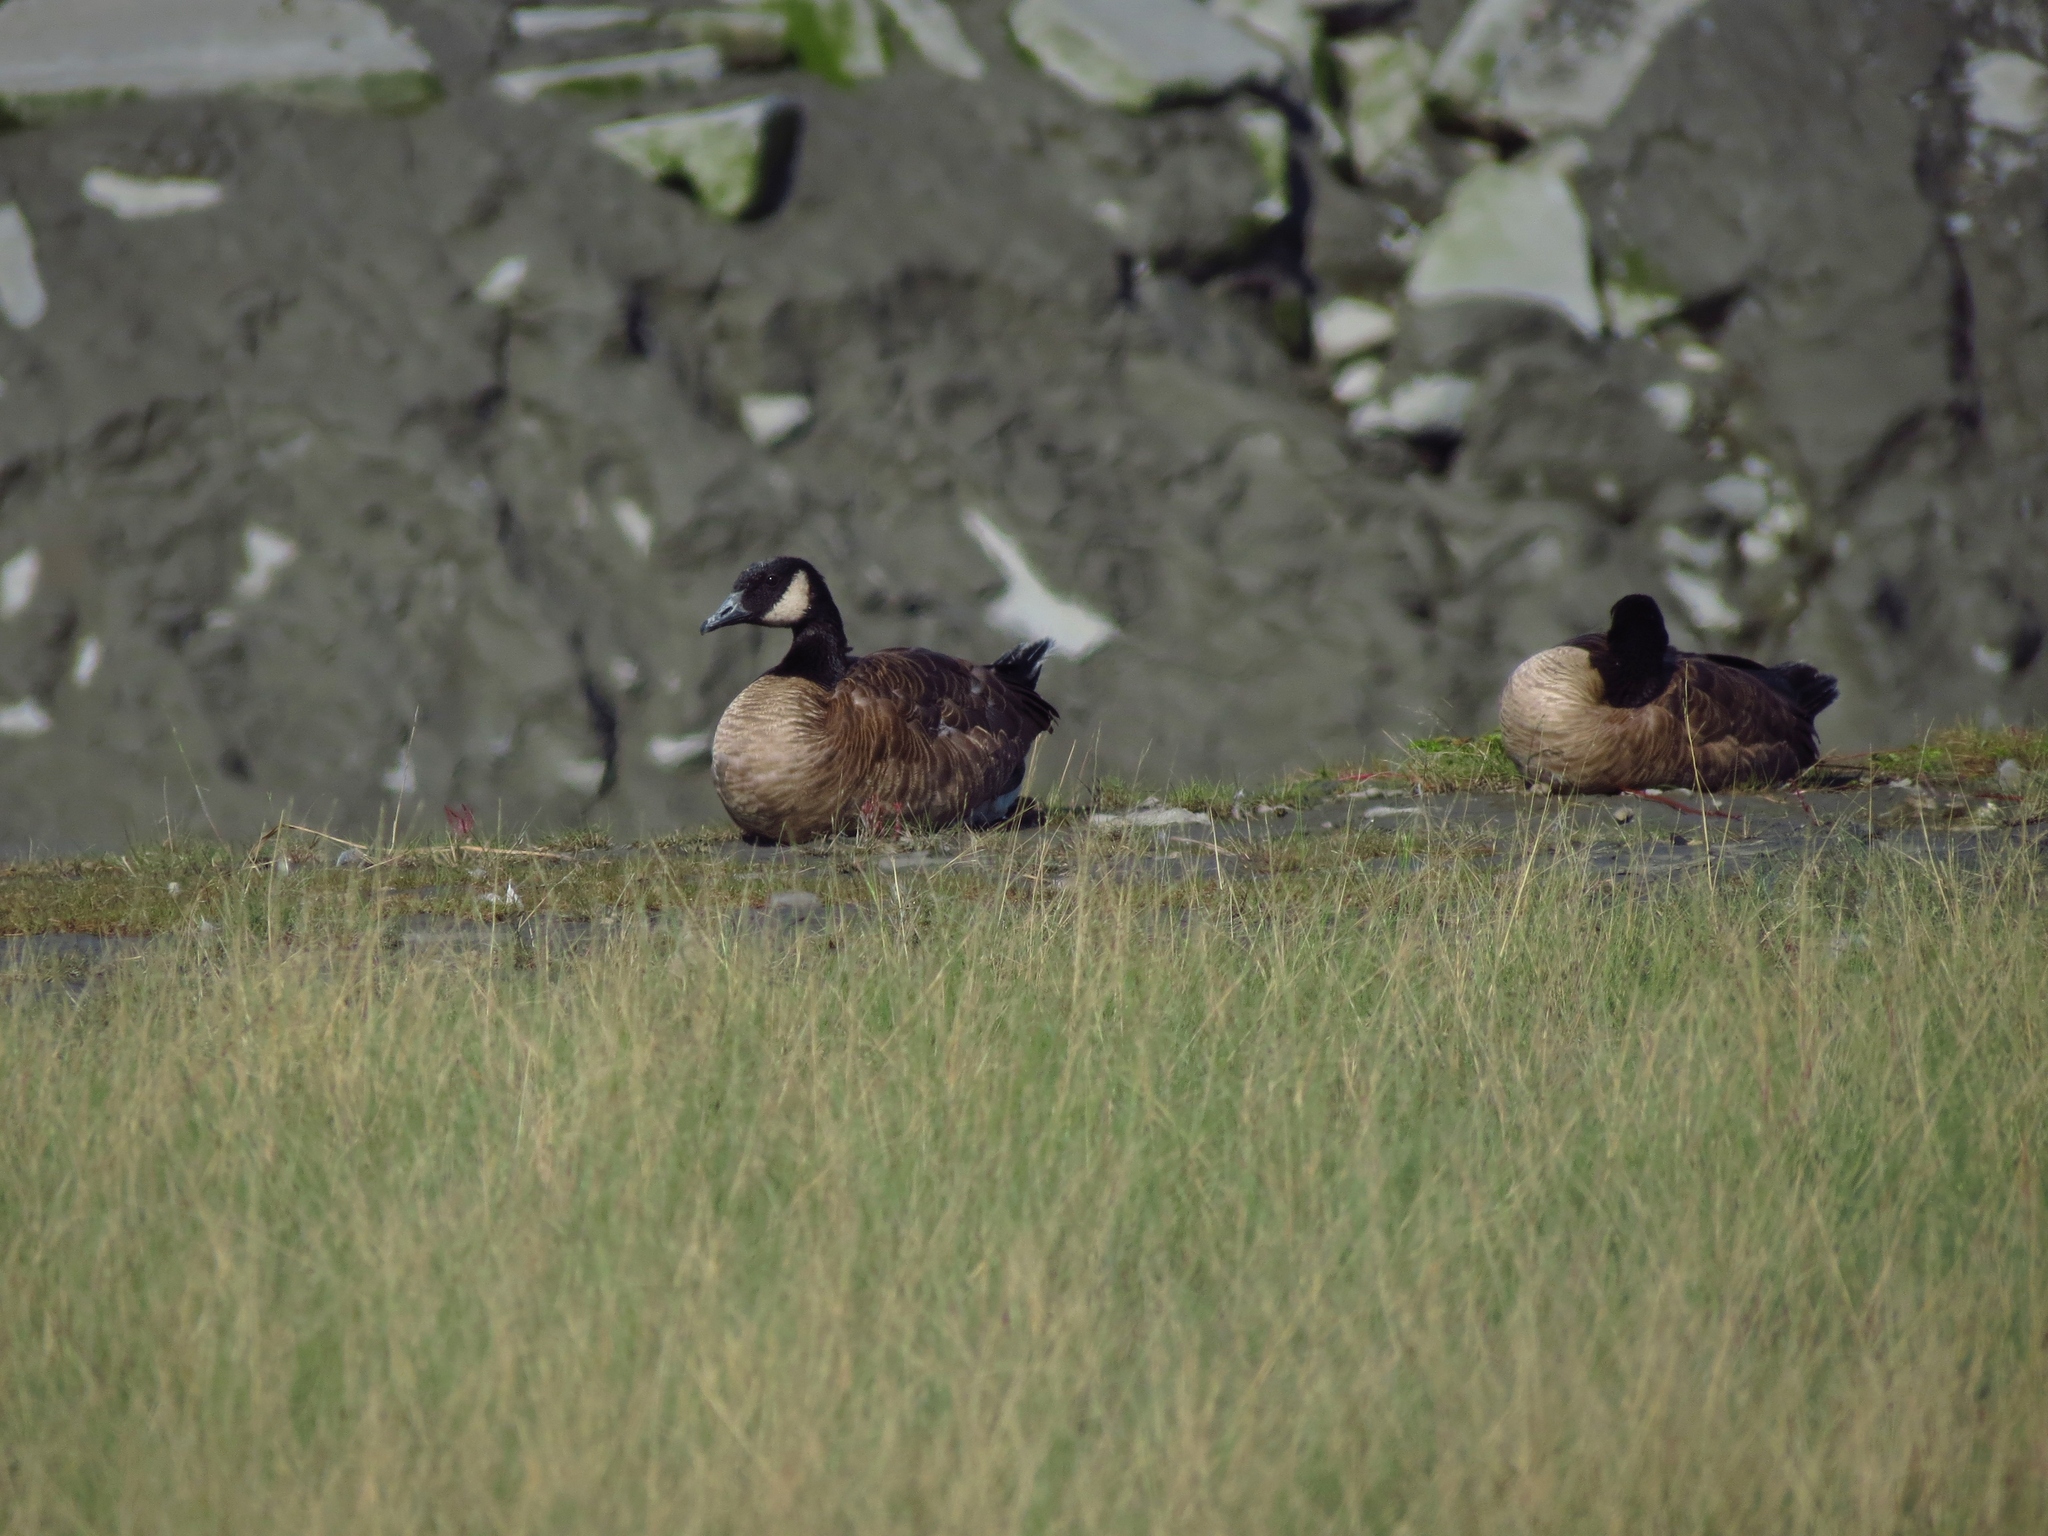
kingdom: Animalia
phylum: Chordata
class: Aves
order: Anseriformes
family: Anatidae
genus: Branta
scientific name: Branta canadensis
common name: Canada goose
